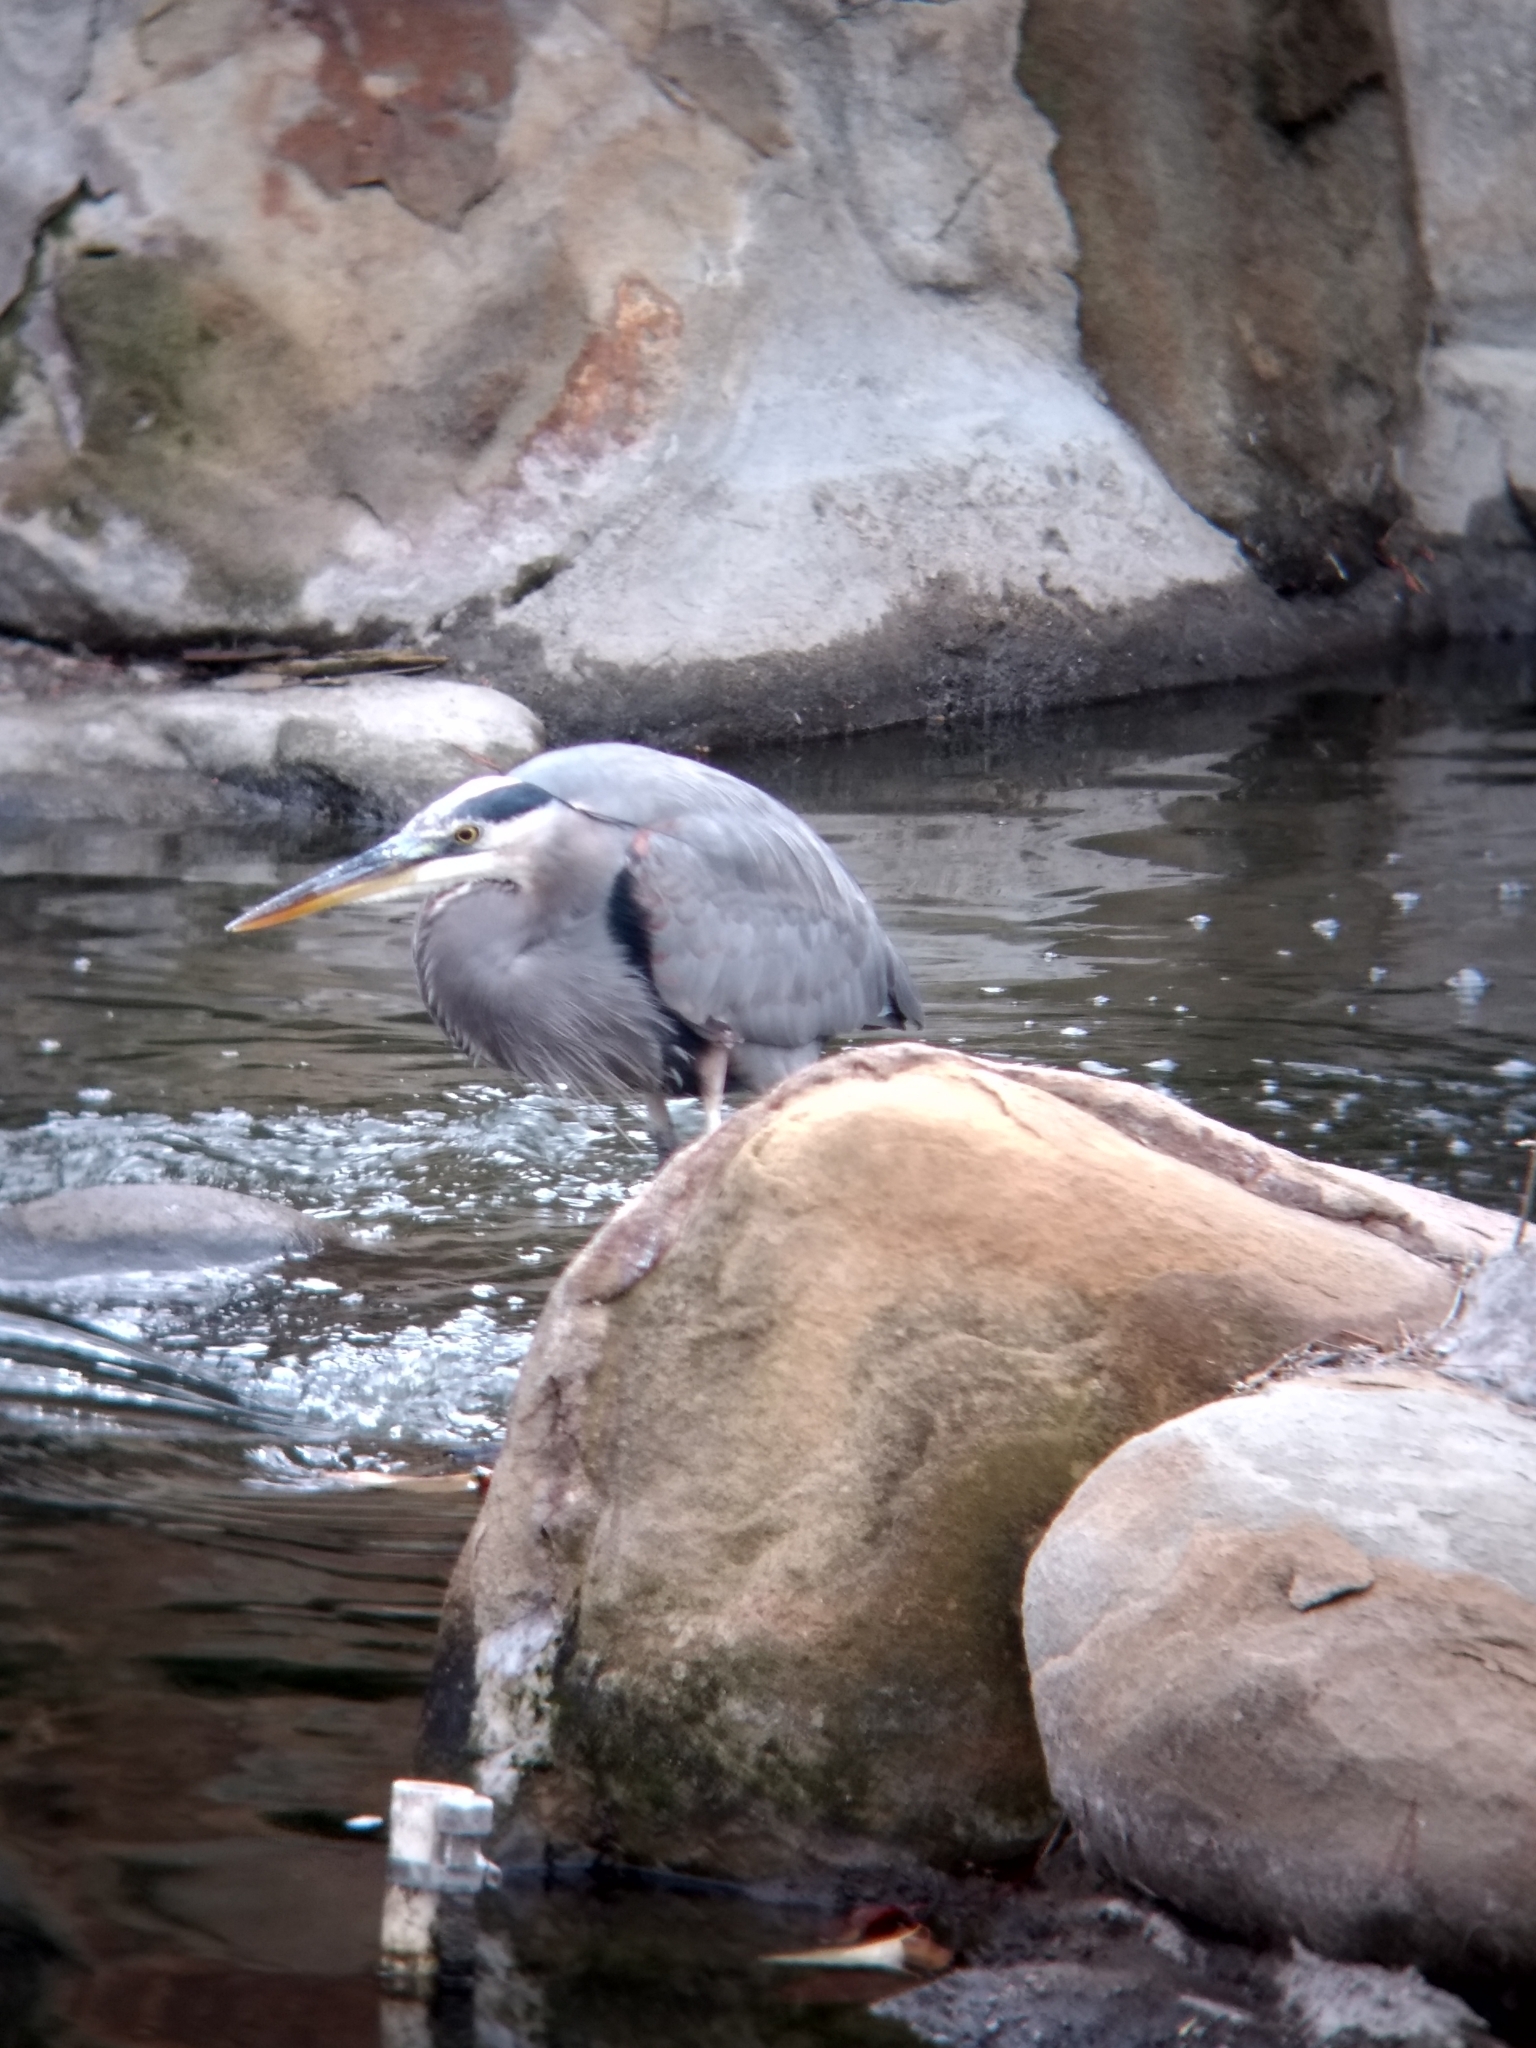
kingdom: Animalia
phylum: Chordata
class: Aves
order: Pelecaniformes
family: Ardeidae
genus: Ardea
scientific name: Ardea herodias
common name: Great blue heron
